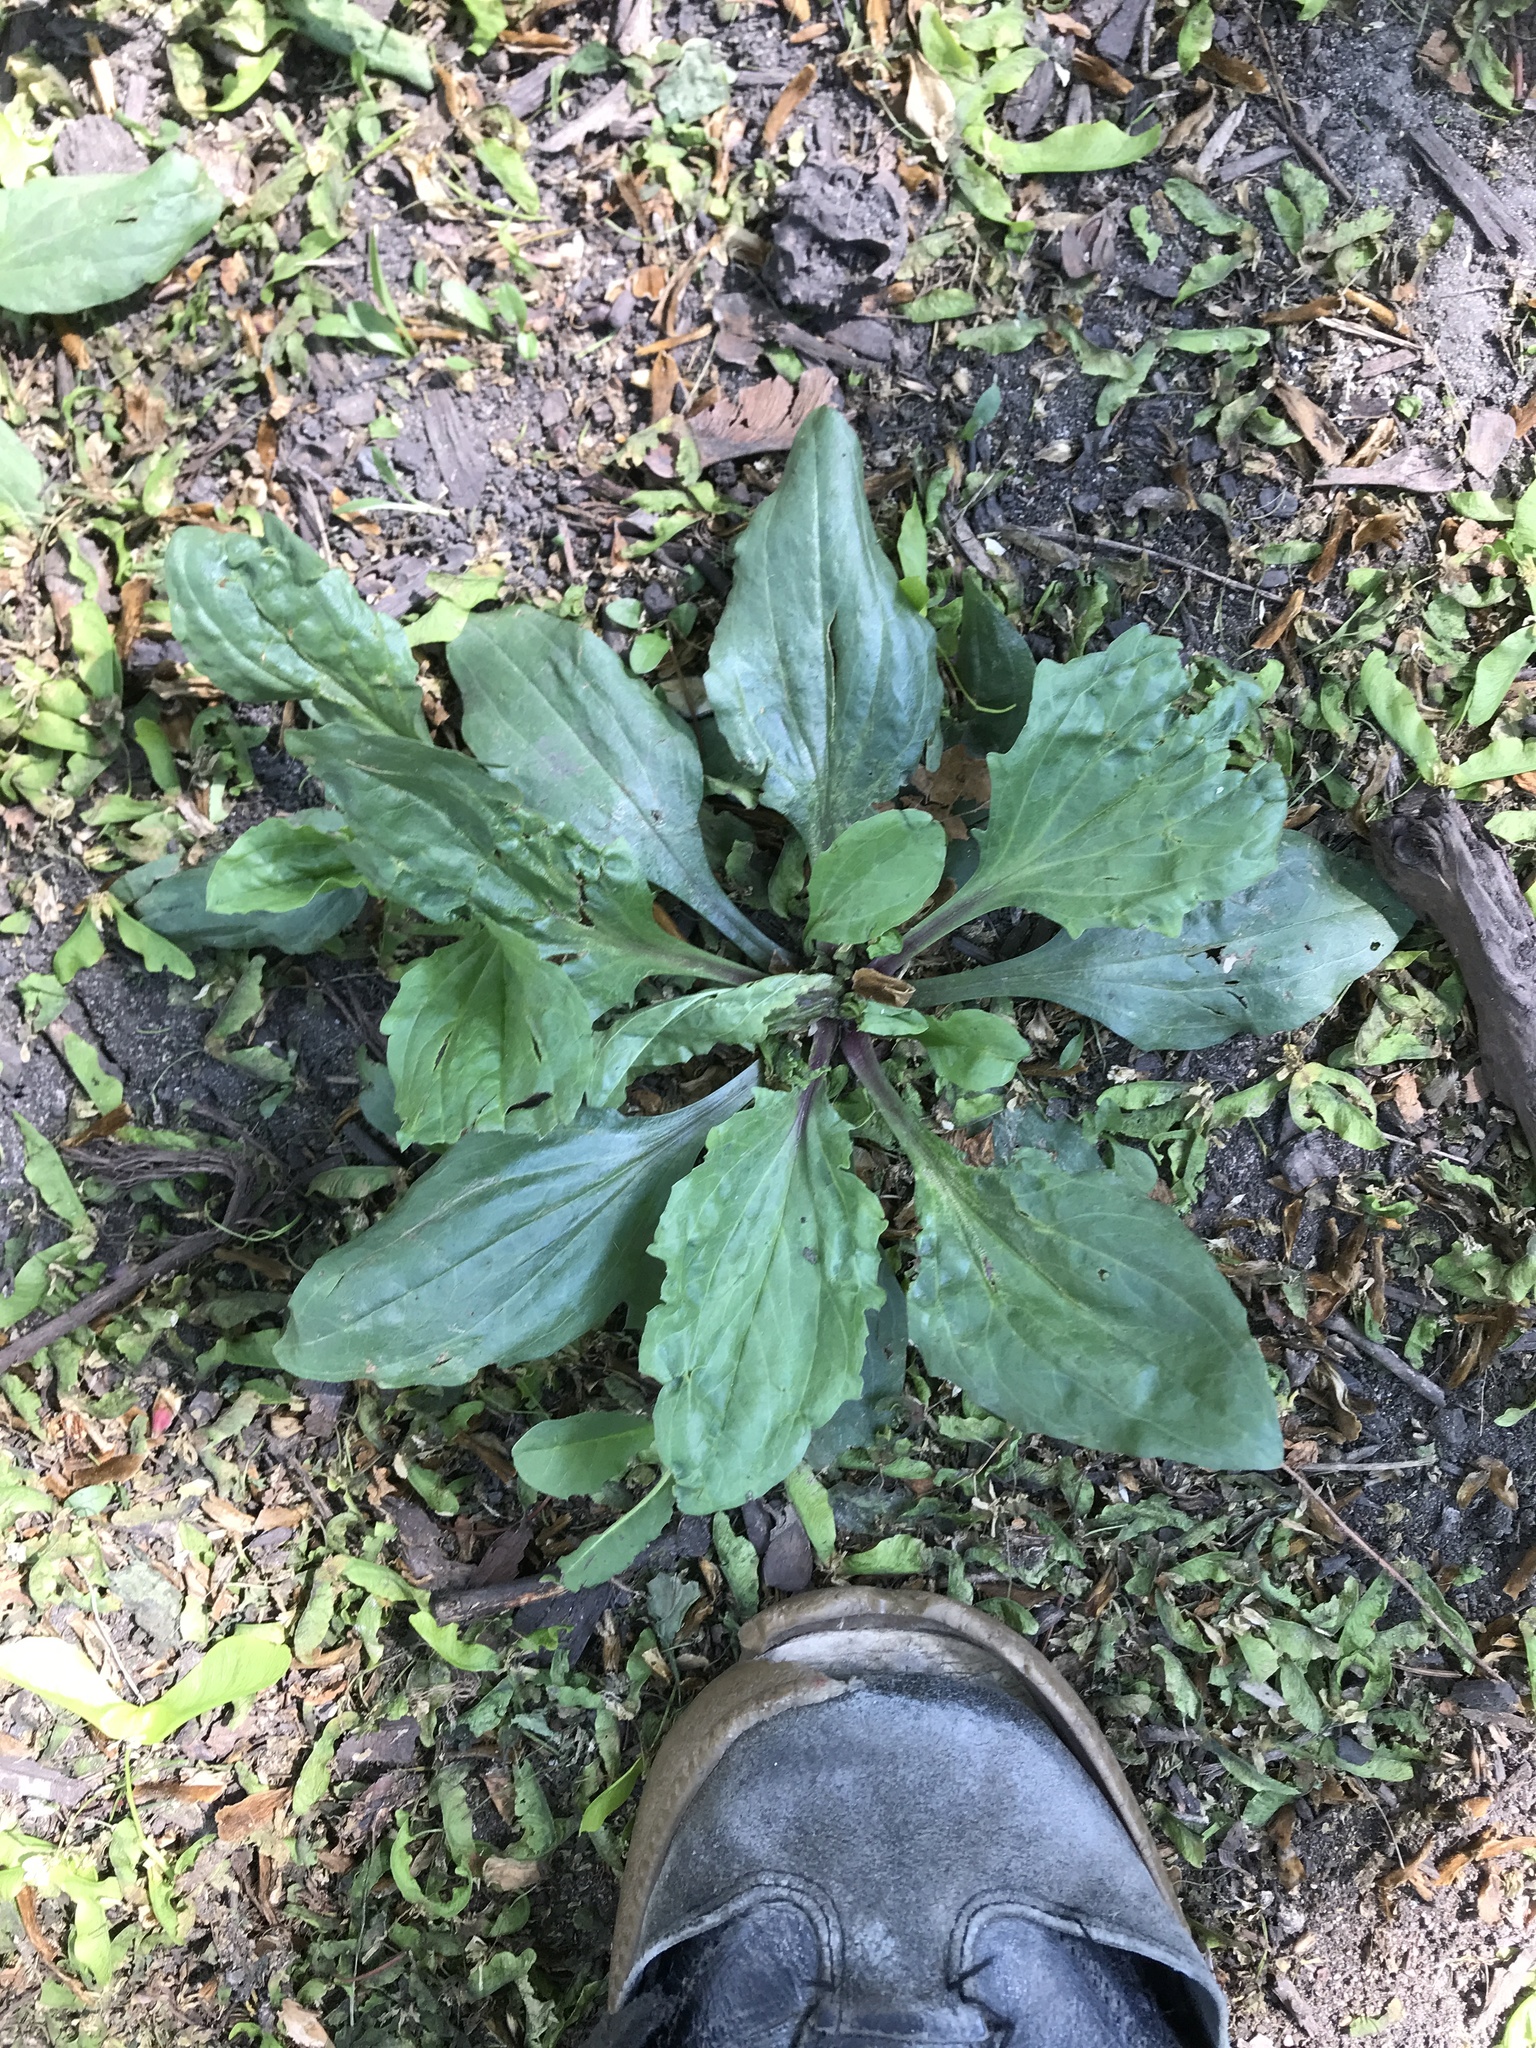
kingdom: Plantae
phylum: Tracheophyta
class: Magnoliopsida
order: Lamiales
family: Plantaginaceae
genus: Plantago
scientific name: Plantago rugelii
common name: American plantain
